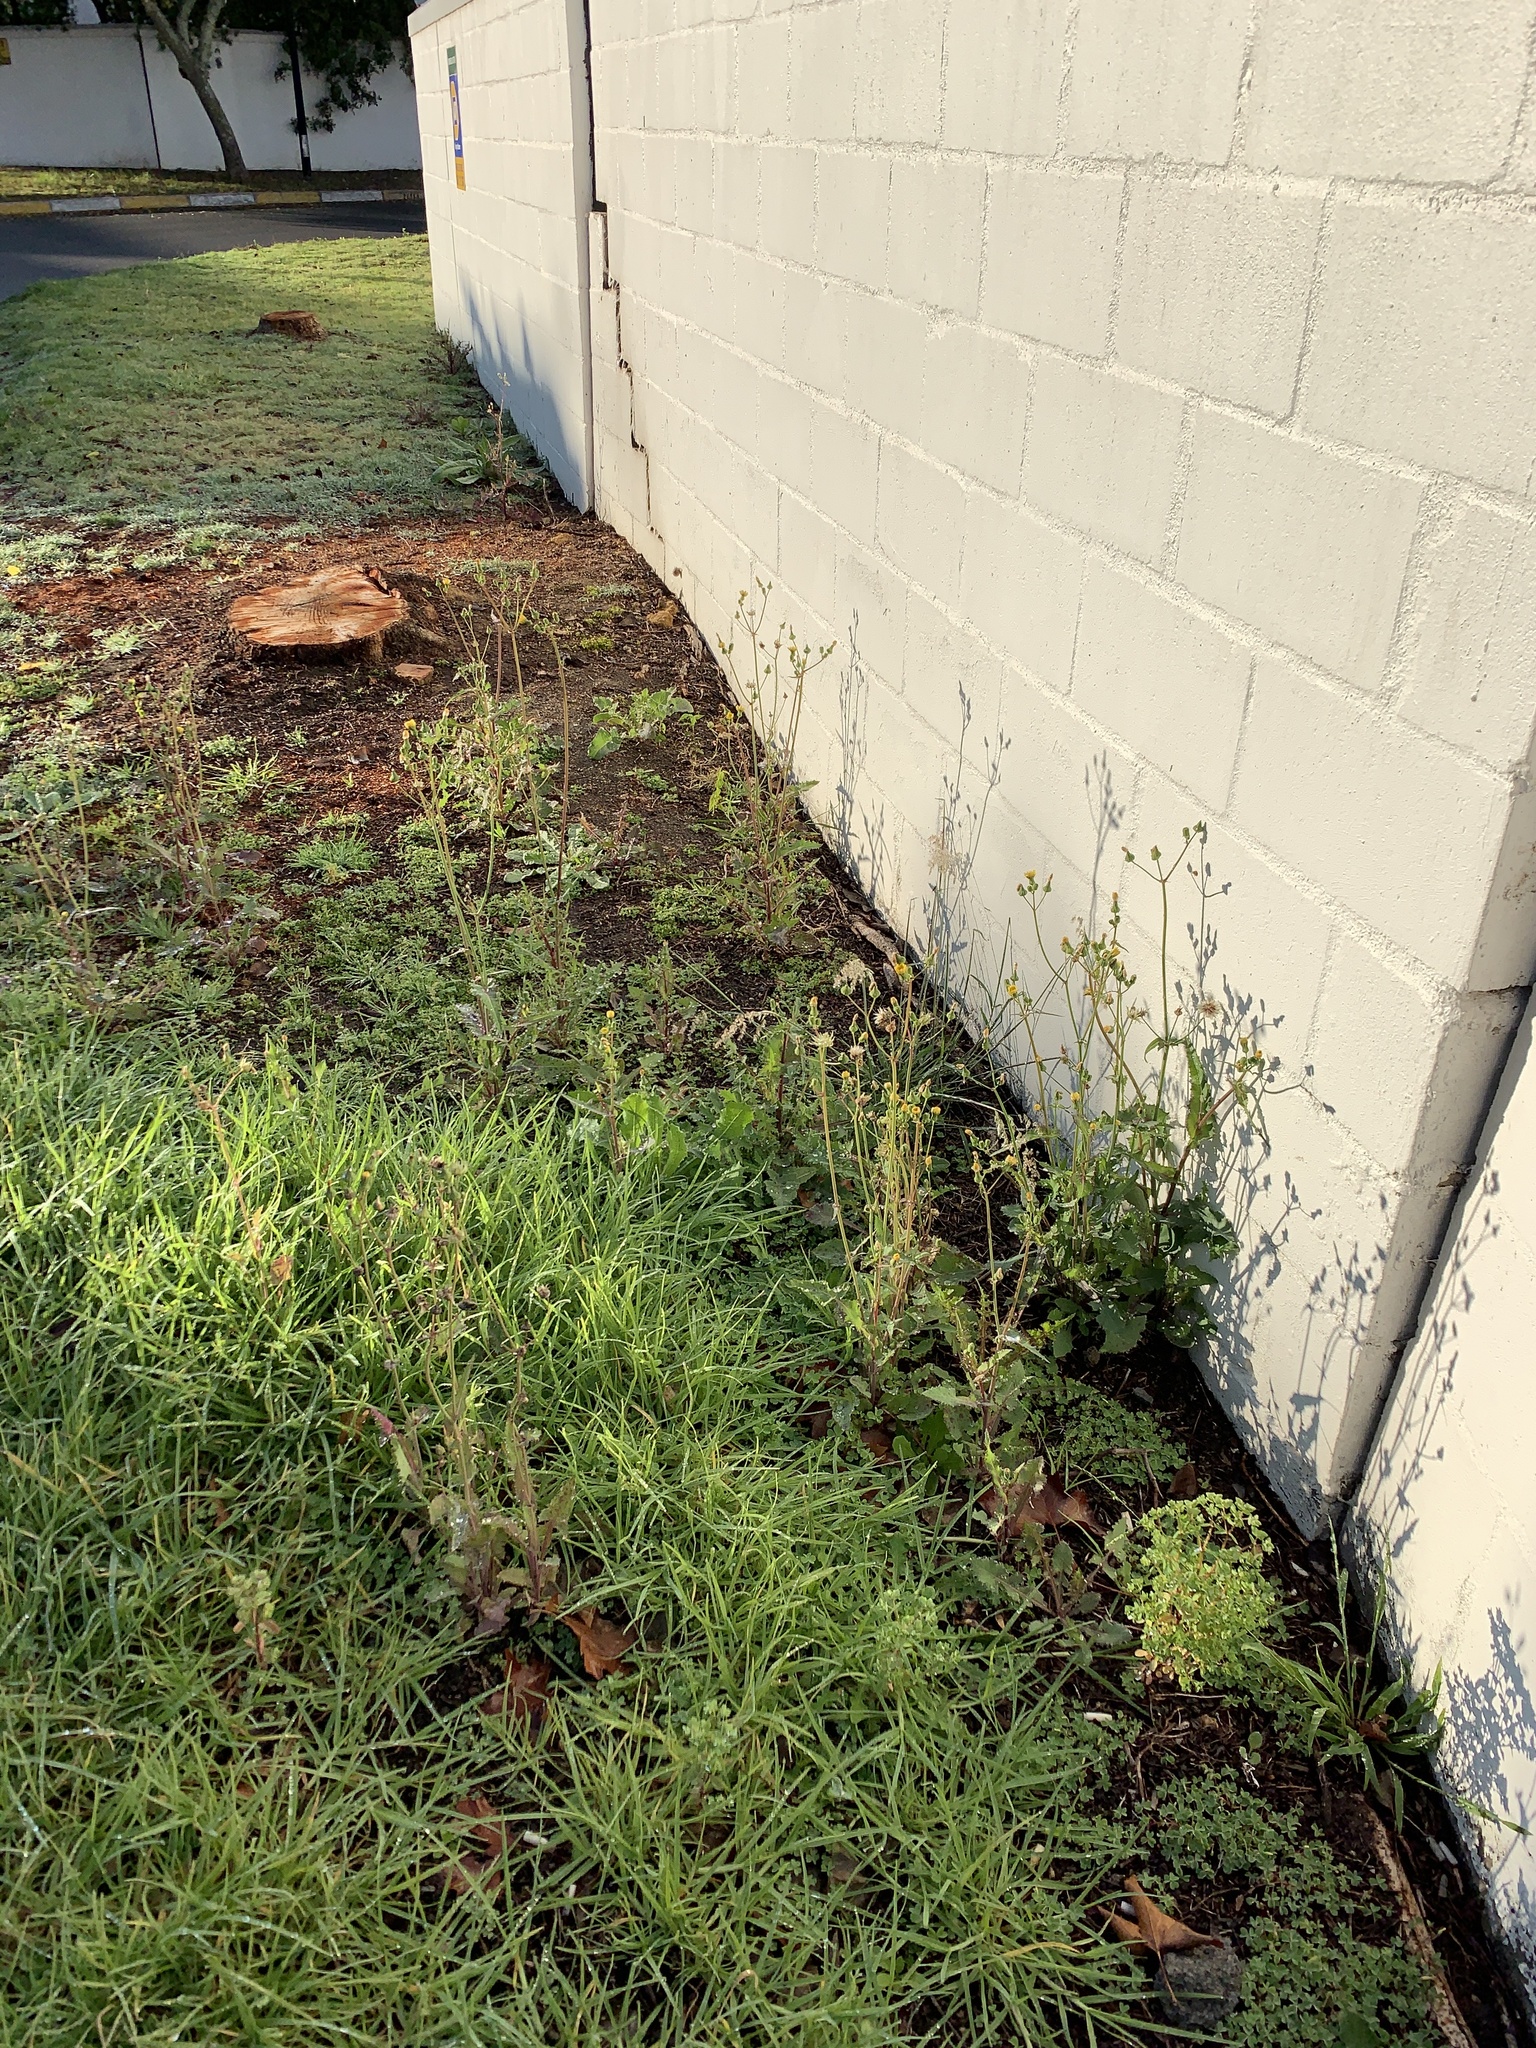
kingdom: Plantae
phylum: Tracheophyta
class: Magnoliopsida
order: Asterales
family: Asteraceae
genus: Sonchus
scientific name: Sonchus oleraceus
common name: Common sowthistle
